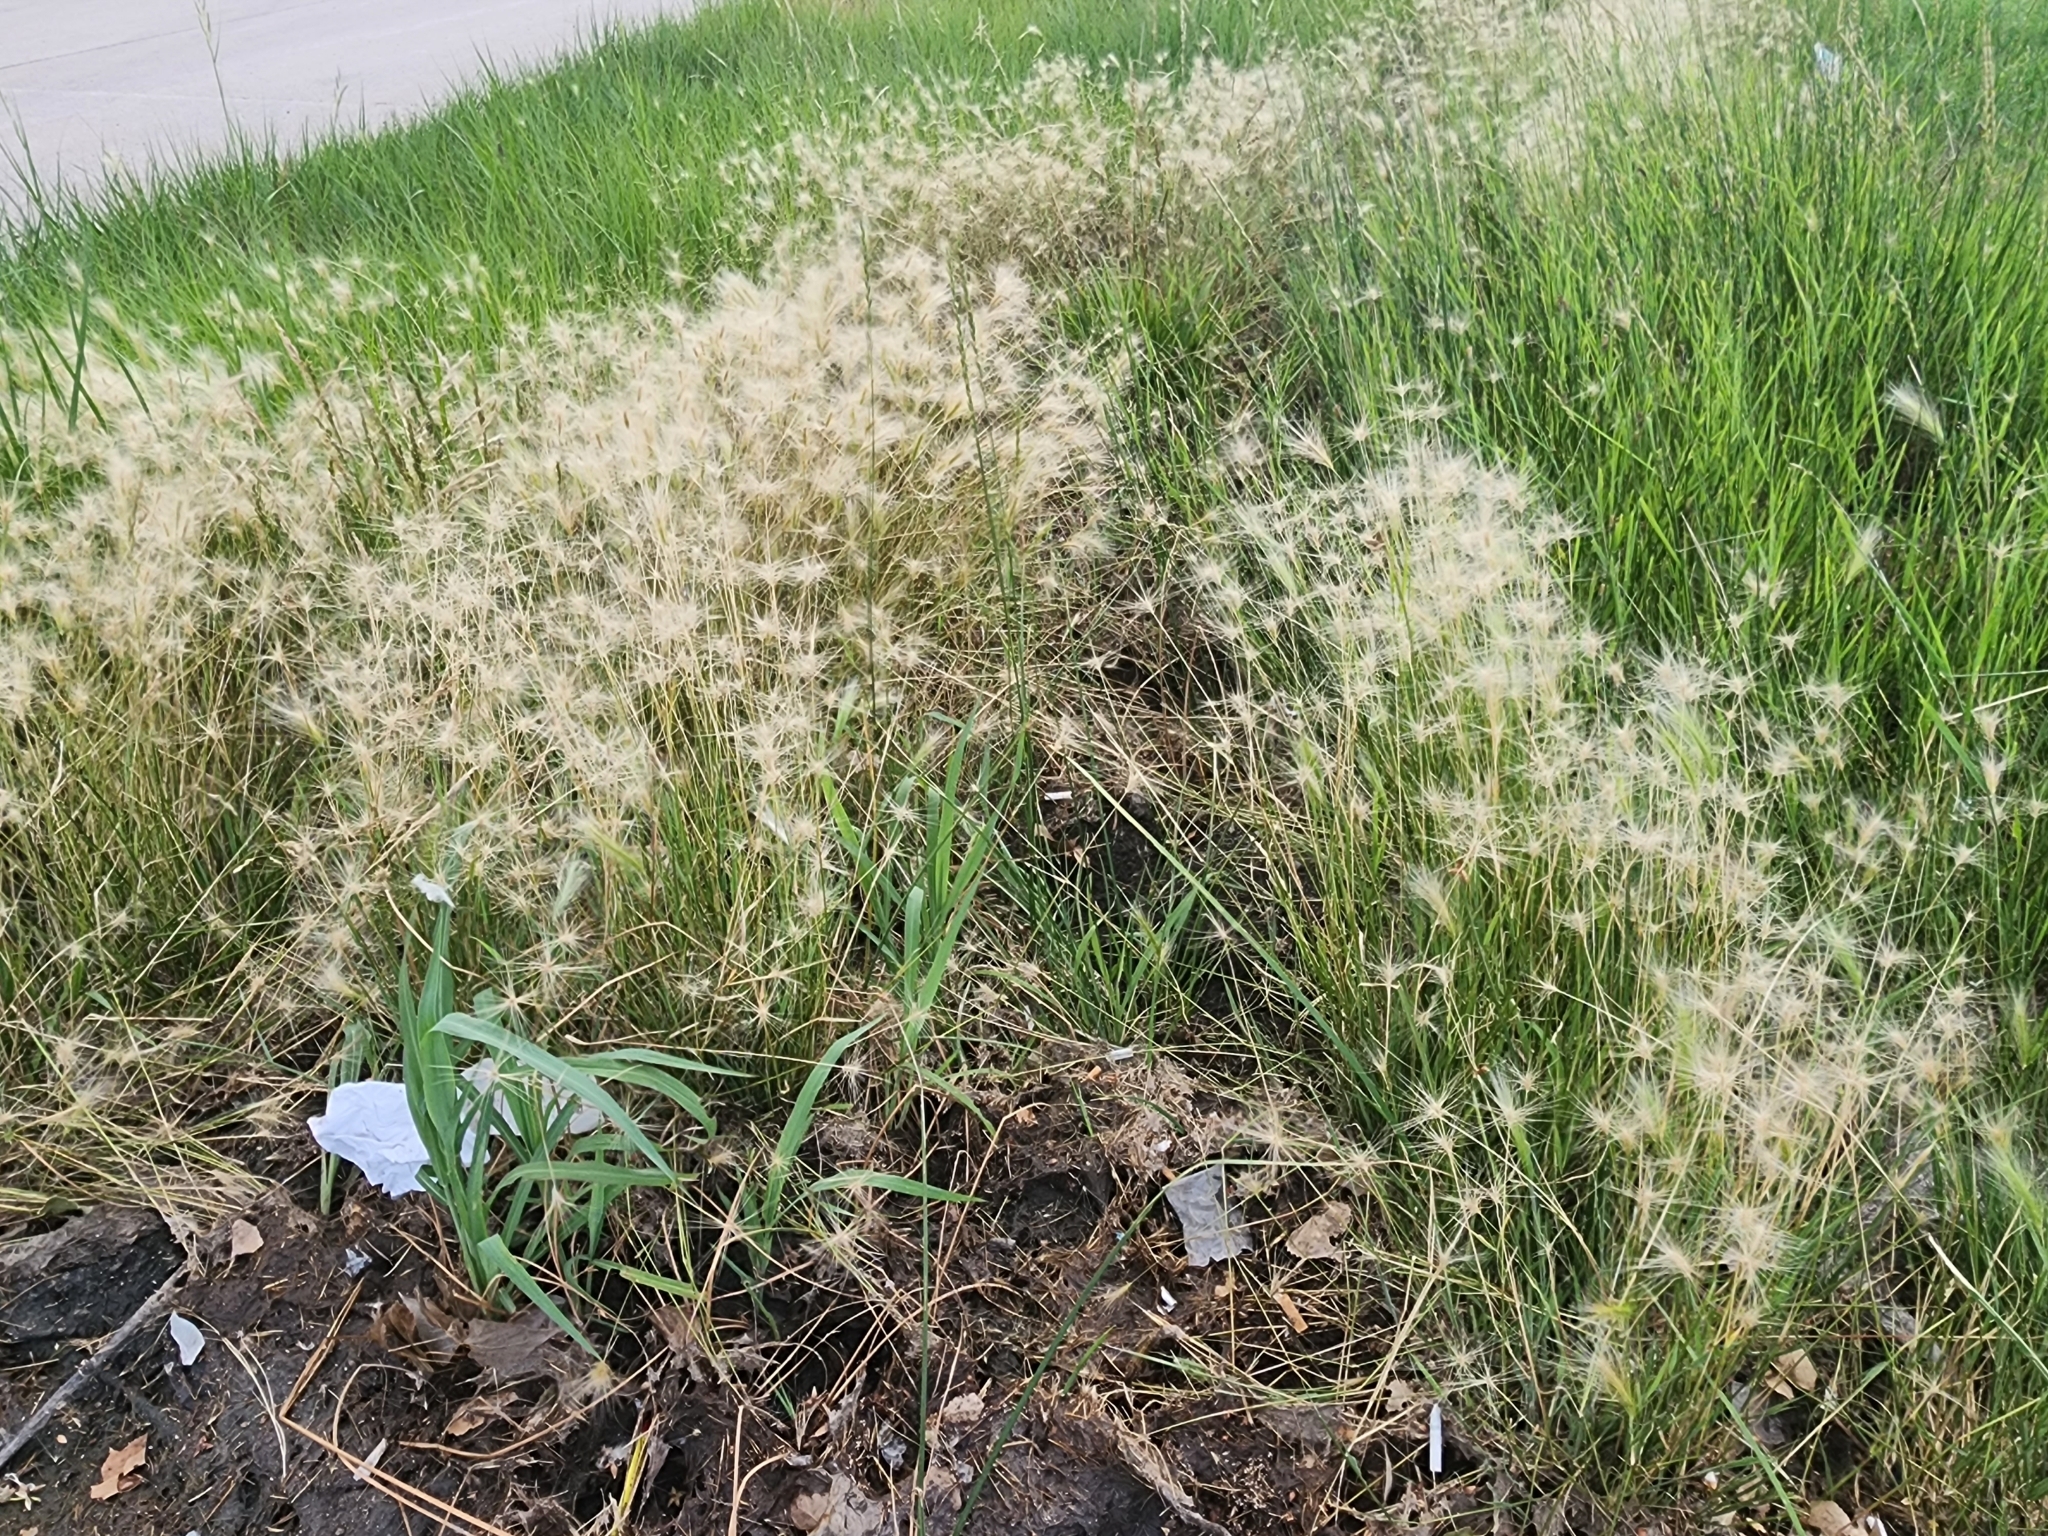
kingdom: Plantae
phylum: Tracheophyta
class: Liliopsida
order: Poales
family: Poaceae
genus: Hordeum
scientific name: Hordeum jubatum
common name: Foxtail barley
